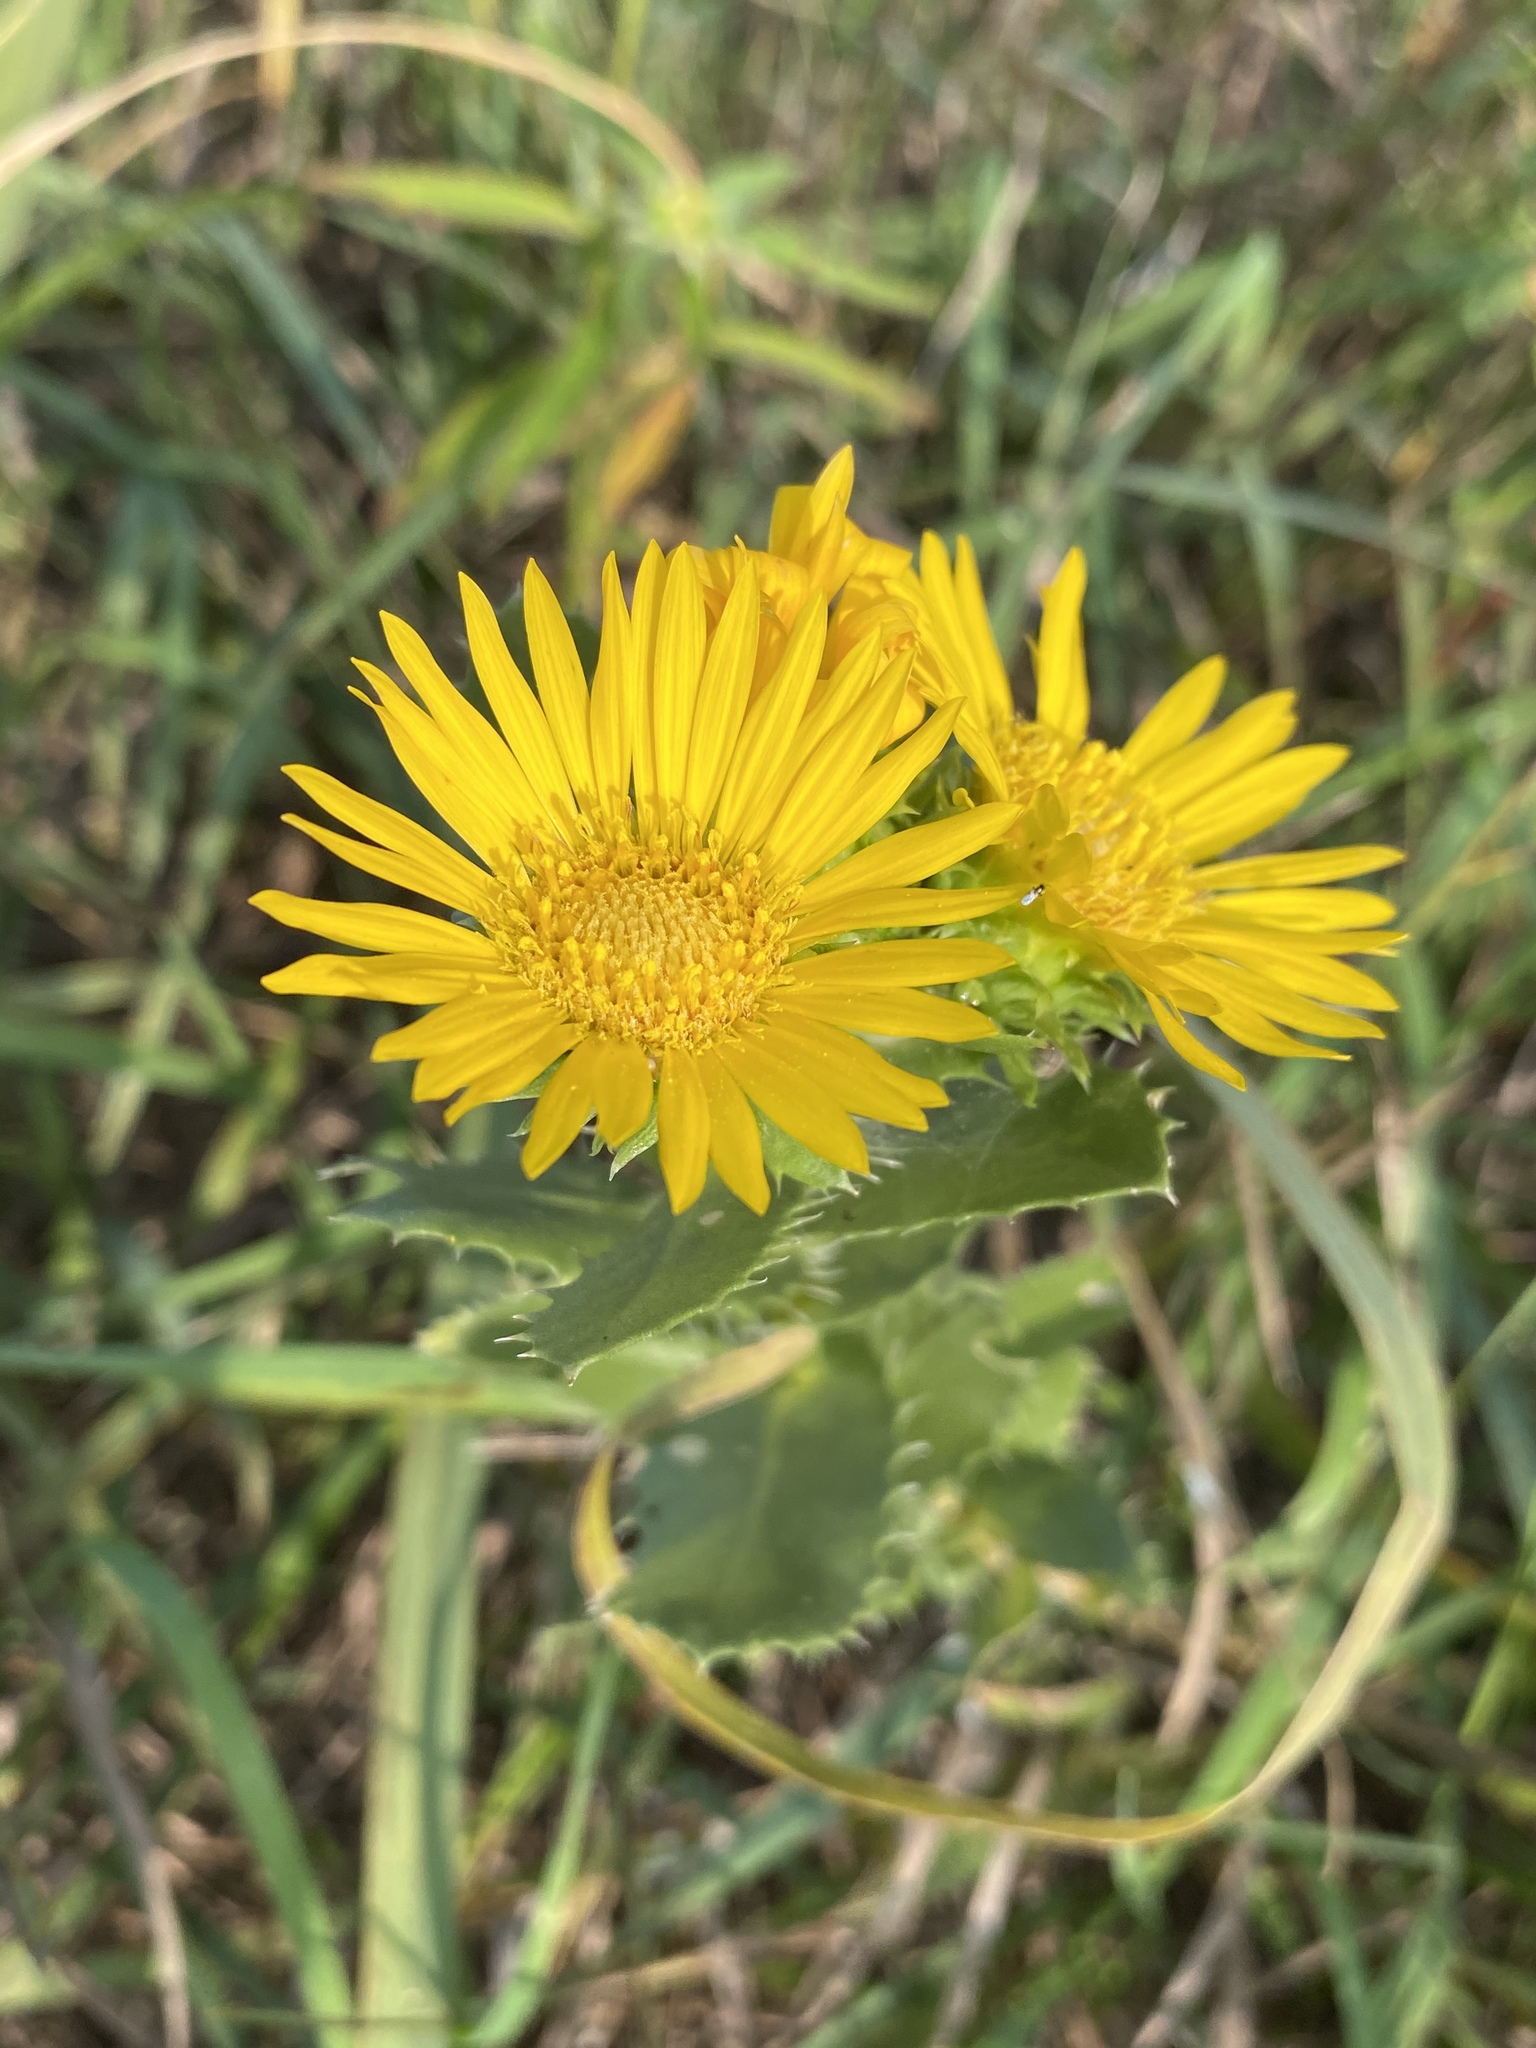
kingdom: Plantae
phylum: Tracheophyta
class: Magnoliopsida
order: Asterales
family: Asteraceae
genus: Grindelia
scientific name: Grindelia ciliata
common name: Goldenweed
